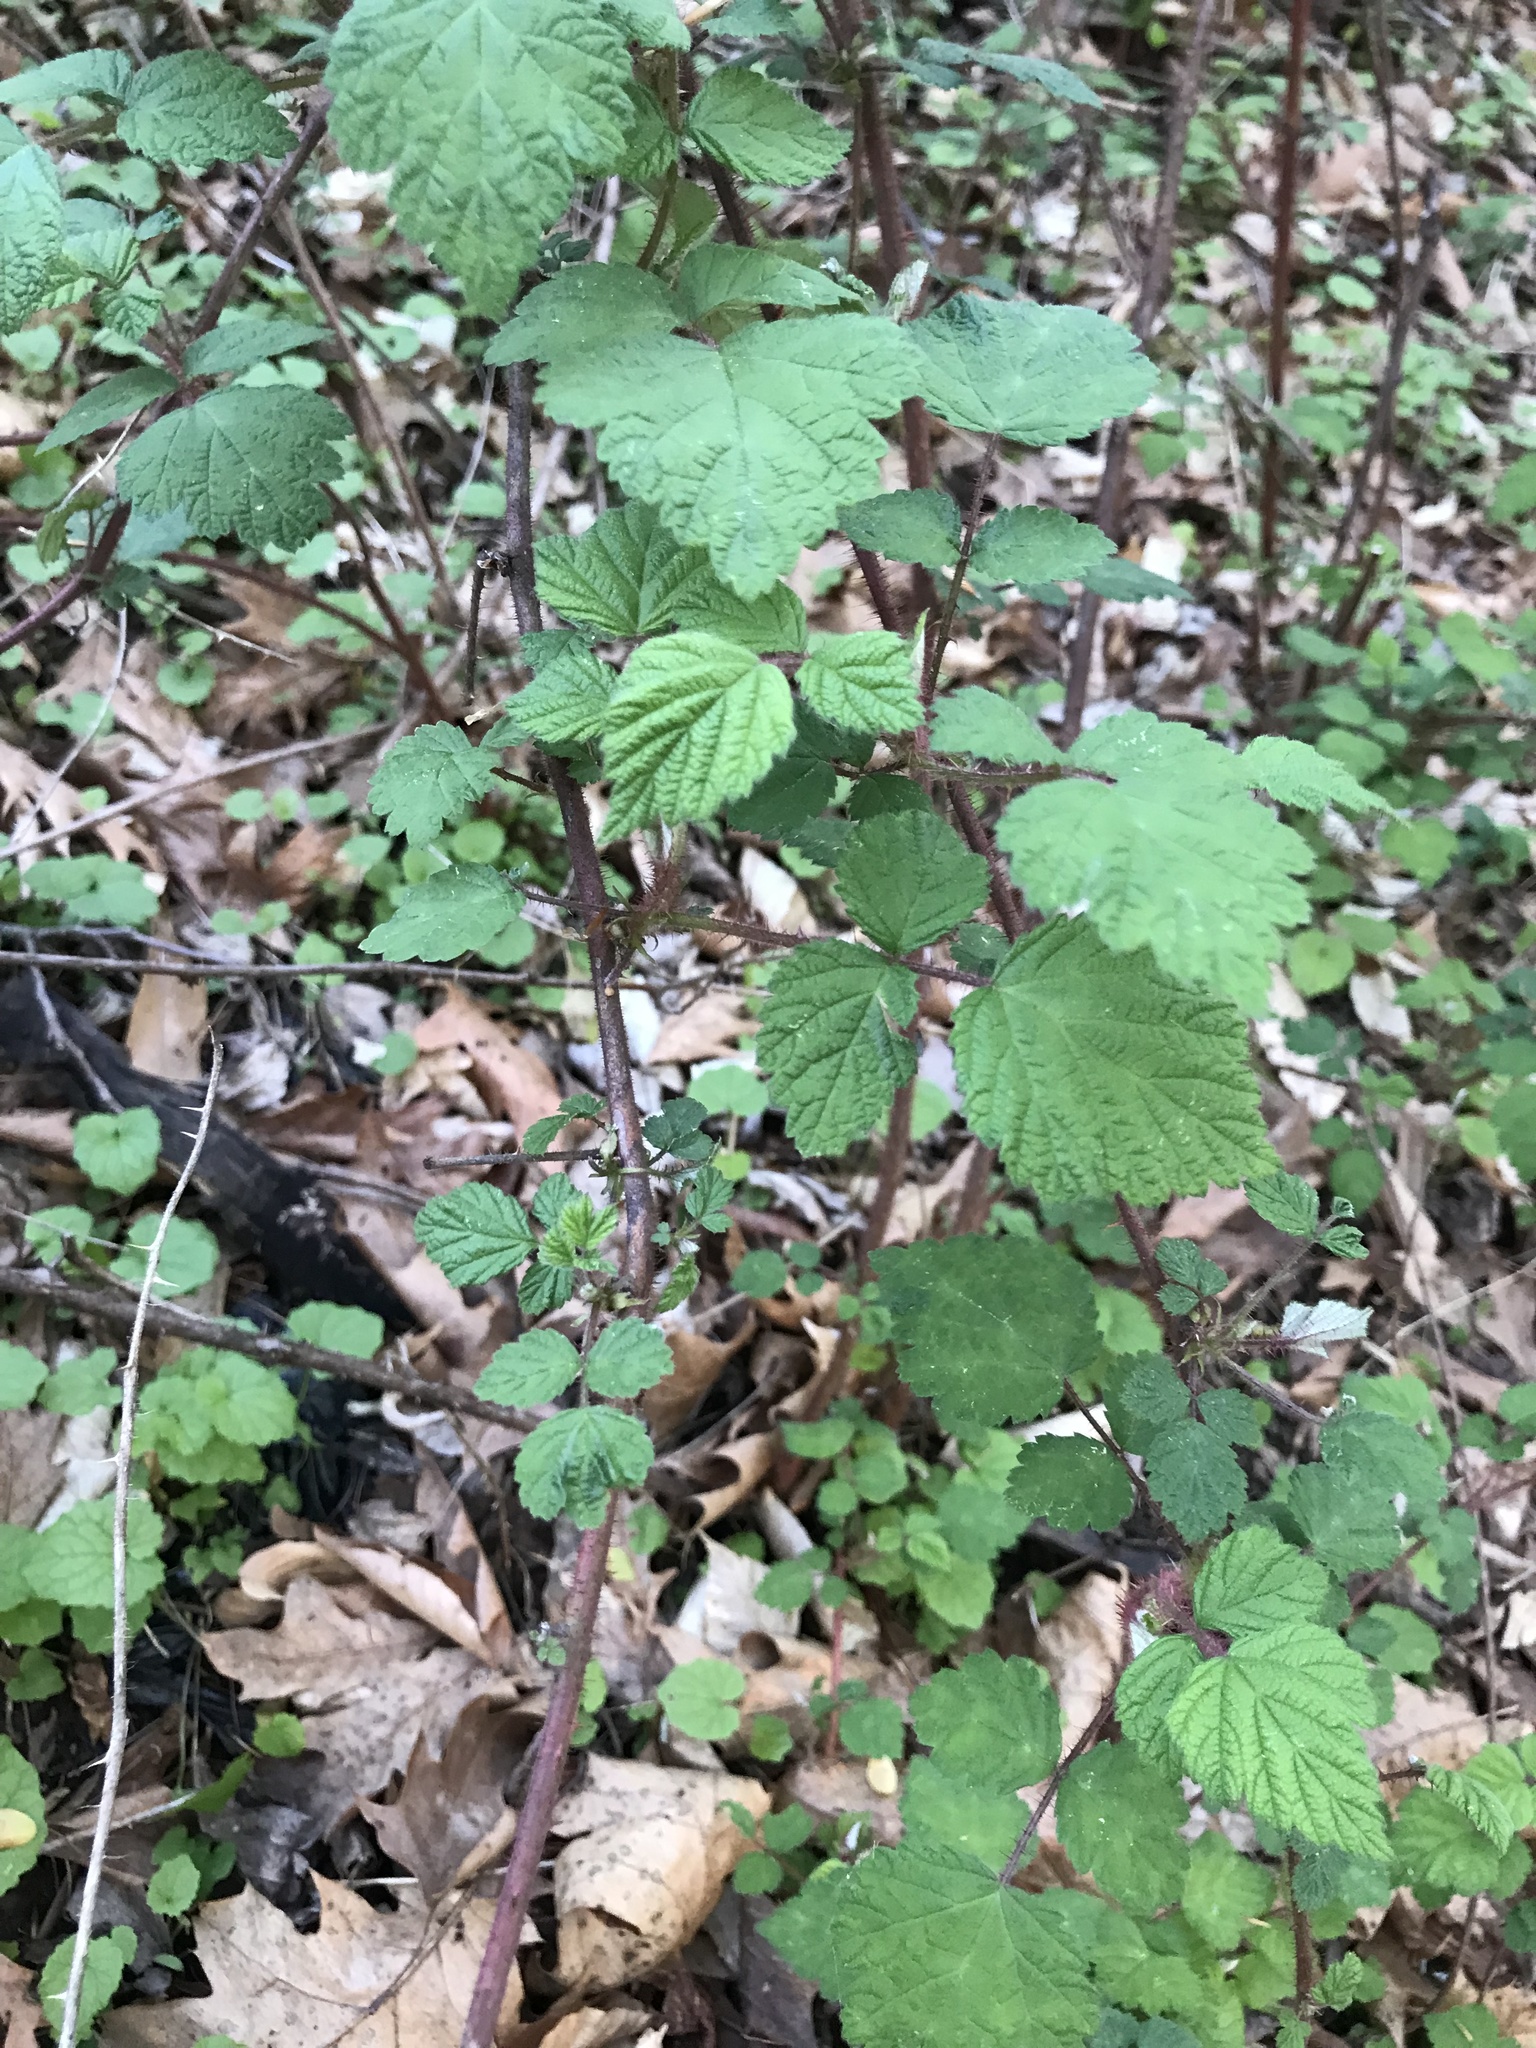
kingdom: Plantae
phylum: Tracheophyta
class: Magnoliopsida
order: Rosales
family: Rosaceae
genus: Rubus
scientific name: Rubus phoenicolasius
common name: Japanese wineberry
